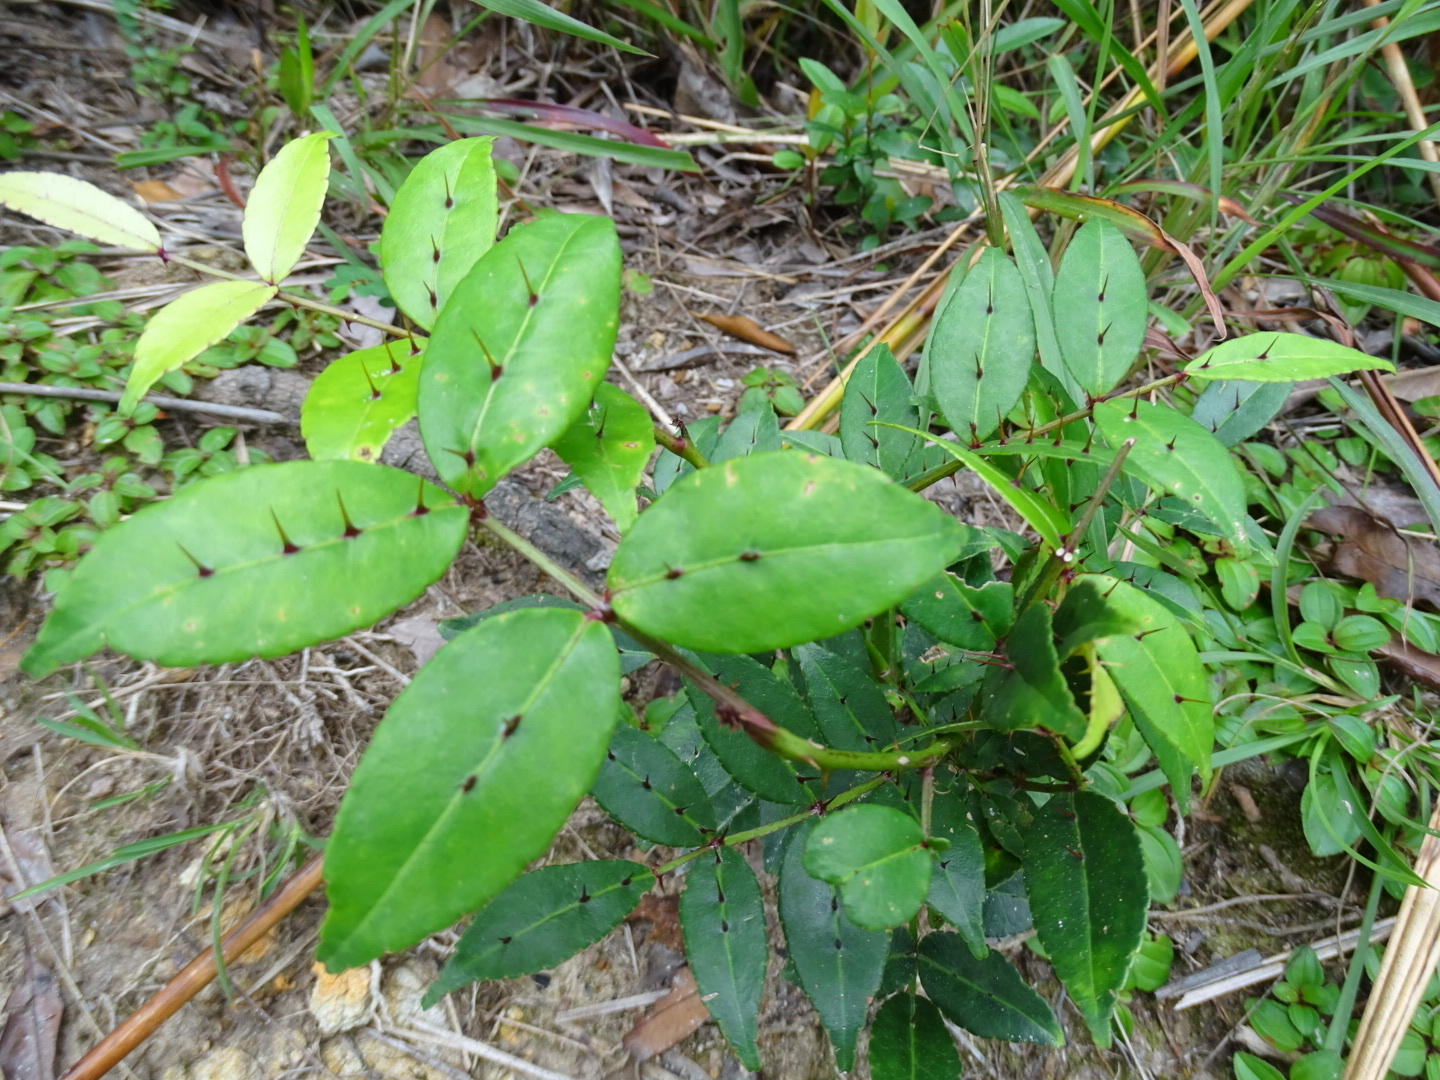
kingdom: Plantae
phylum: Tracheophyta
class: Magnoliopsida
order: Sapindales
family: Rutaceae
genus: Zanthoxylum
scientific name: Zanthoxylum nitidum
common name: Shiny-leaf prickly-ash
